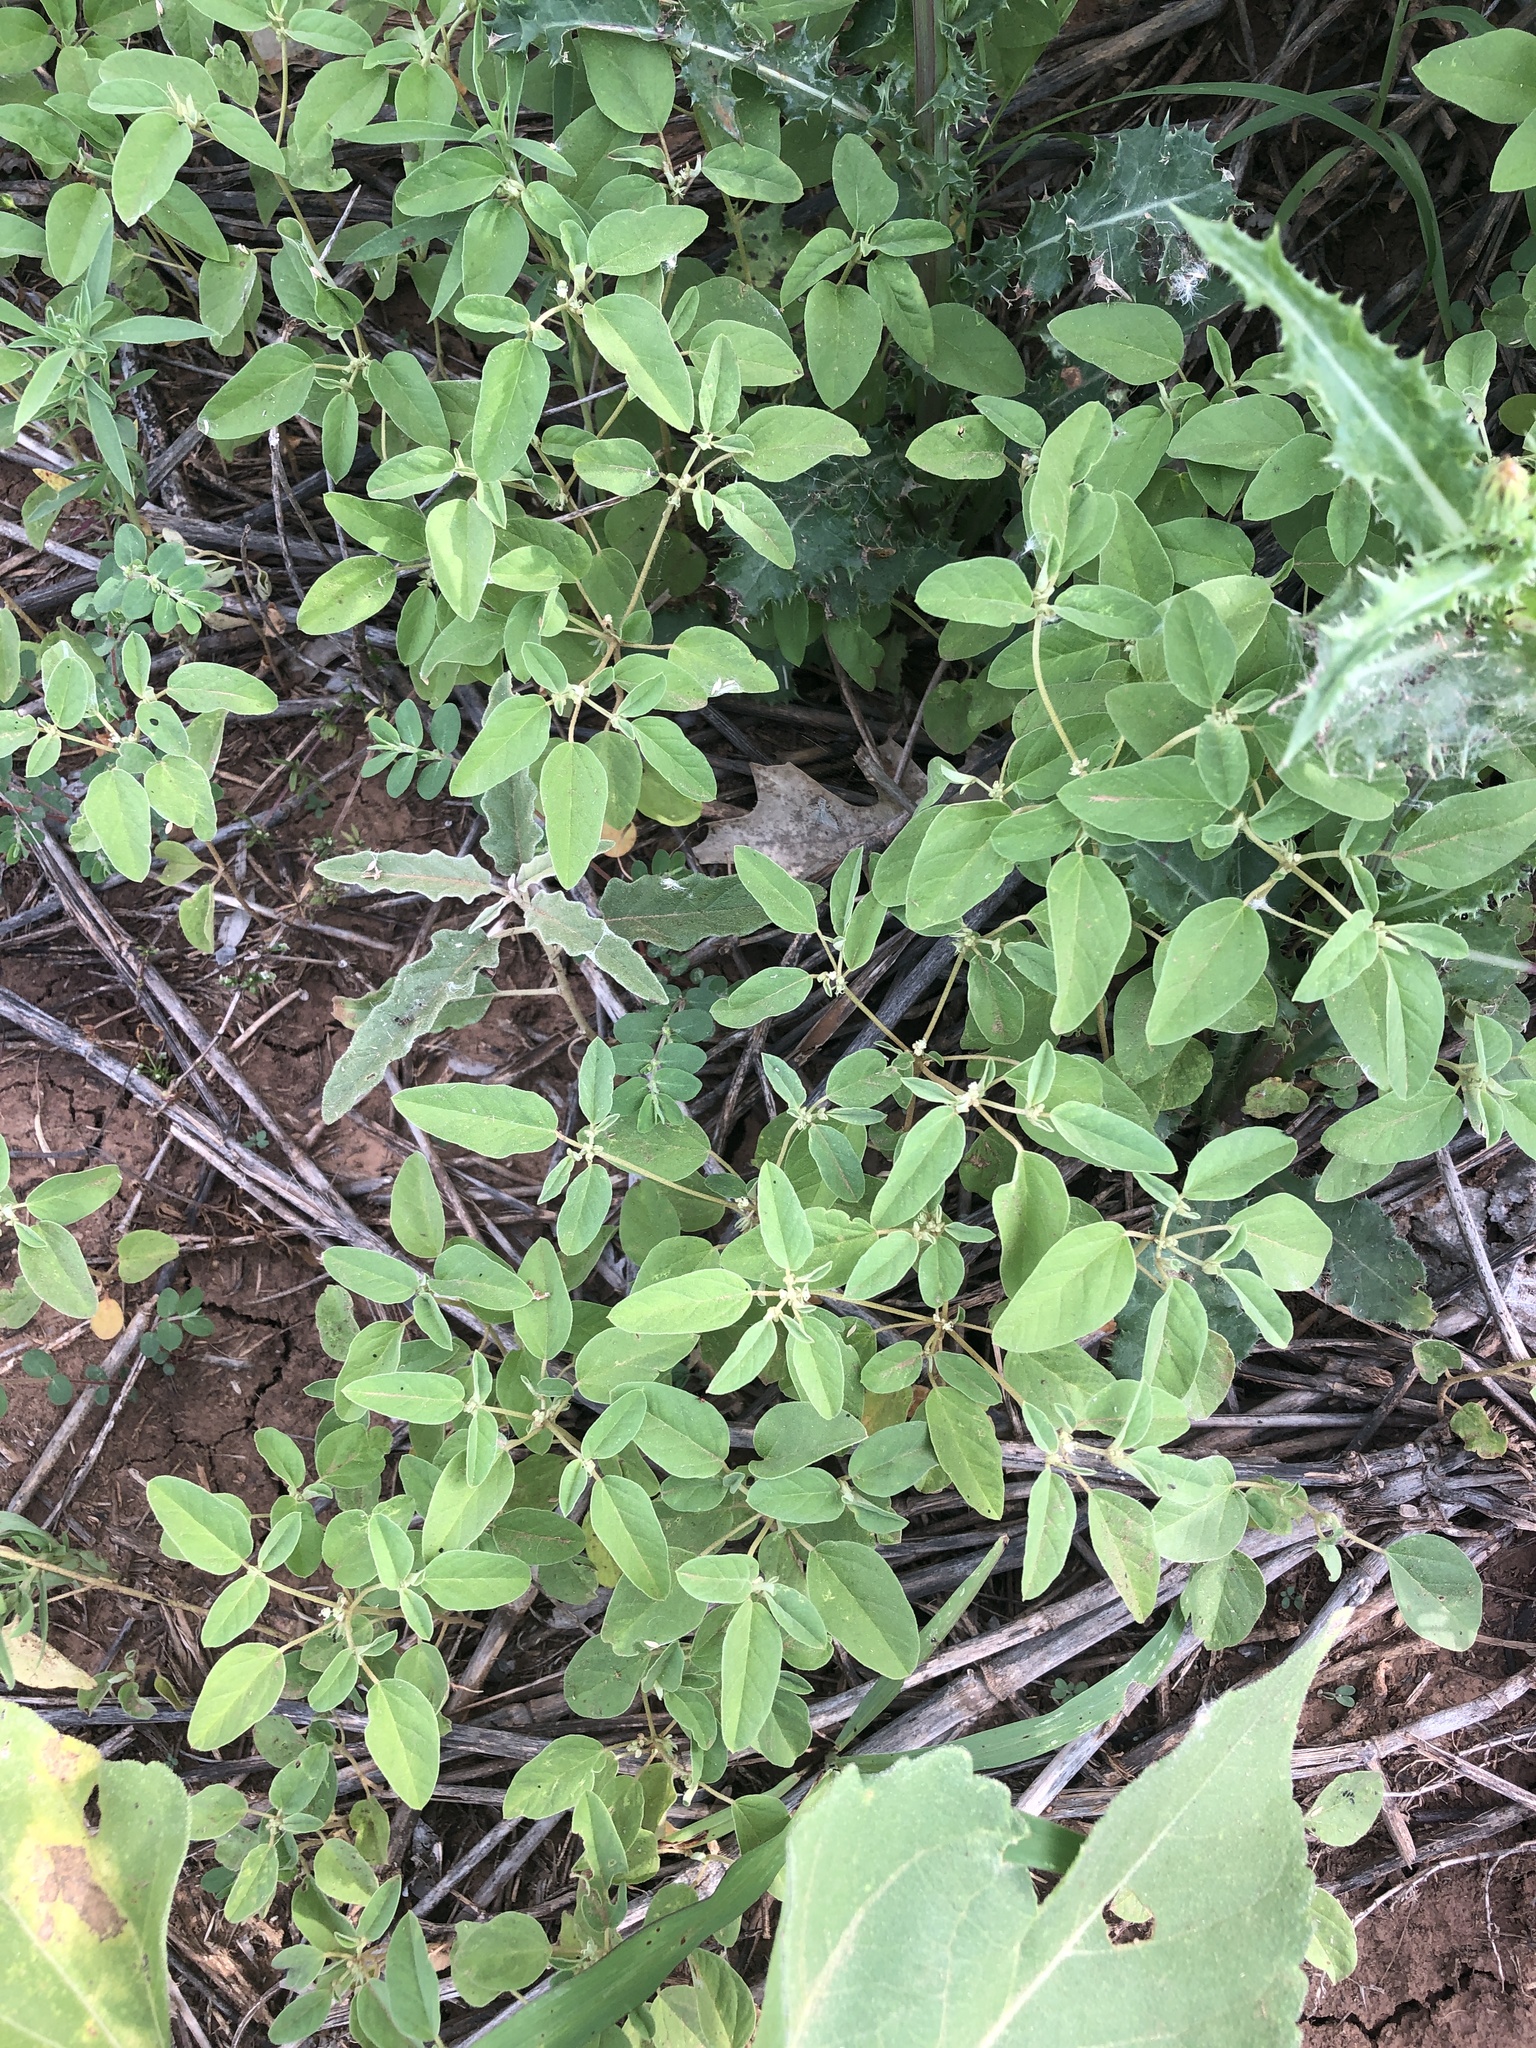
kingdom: Plantae
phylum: Tracheophyta
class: Magnoliopsida
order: Malpighiales
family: Euphorbiaceae
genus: Croton
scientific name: Croton monanthogynus
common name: One-seed croton
